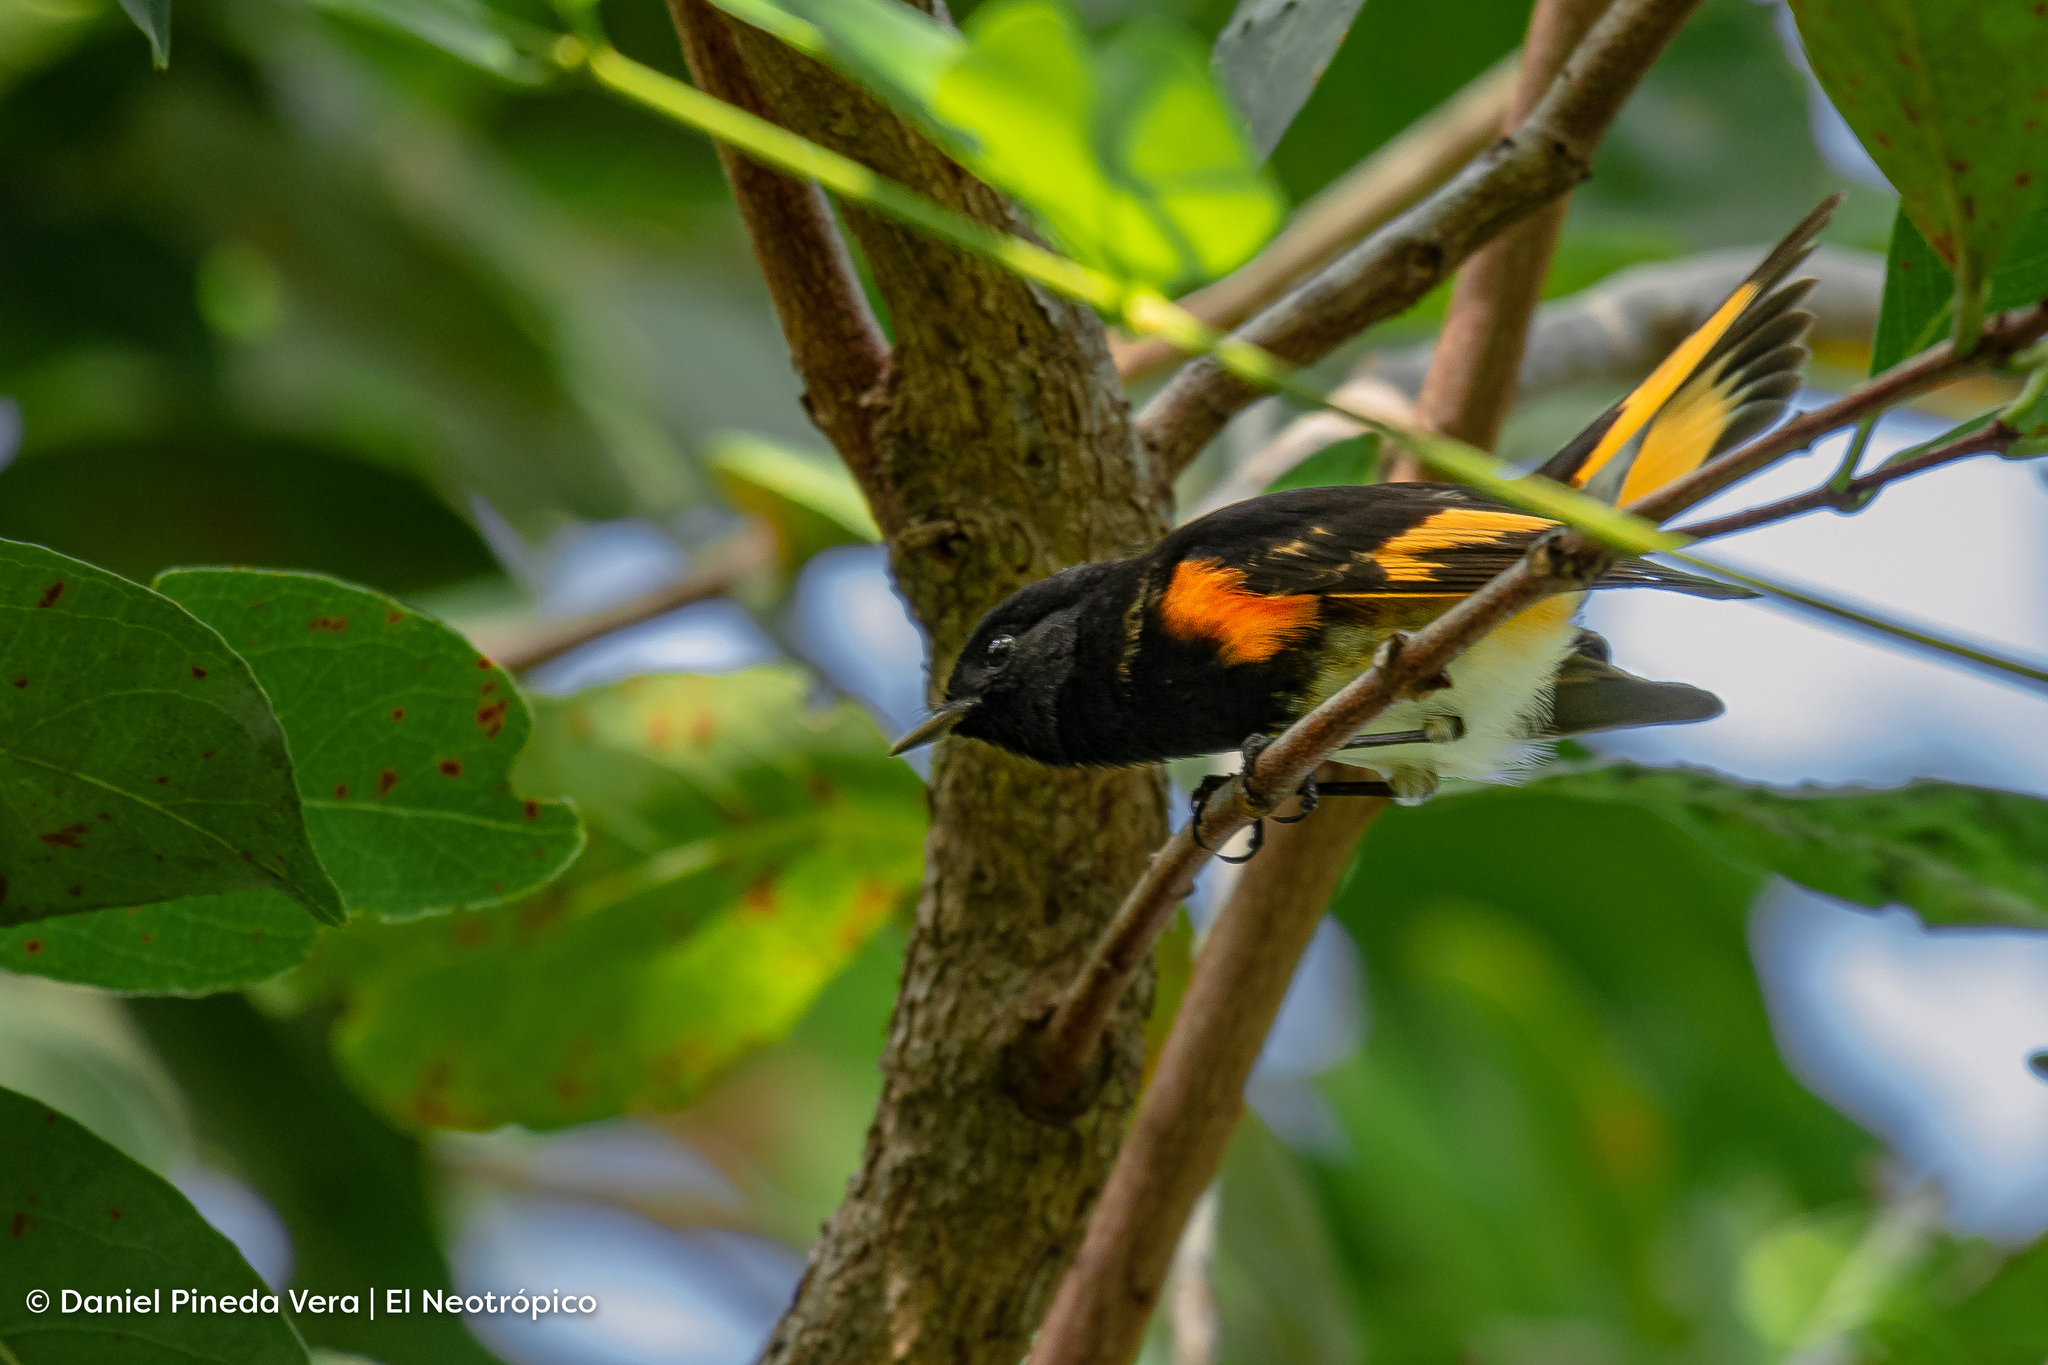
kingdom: Animalia
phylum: Chordata
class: Aves
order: Passeriformes
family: Parulidae
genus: Setophaga
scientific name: Setophaga ruticilla
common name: American redstart
